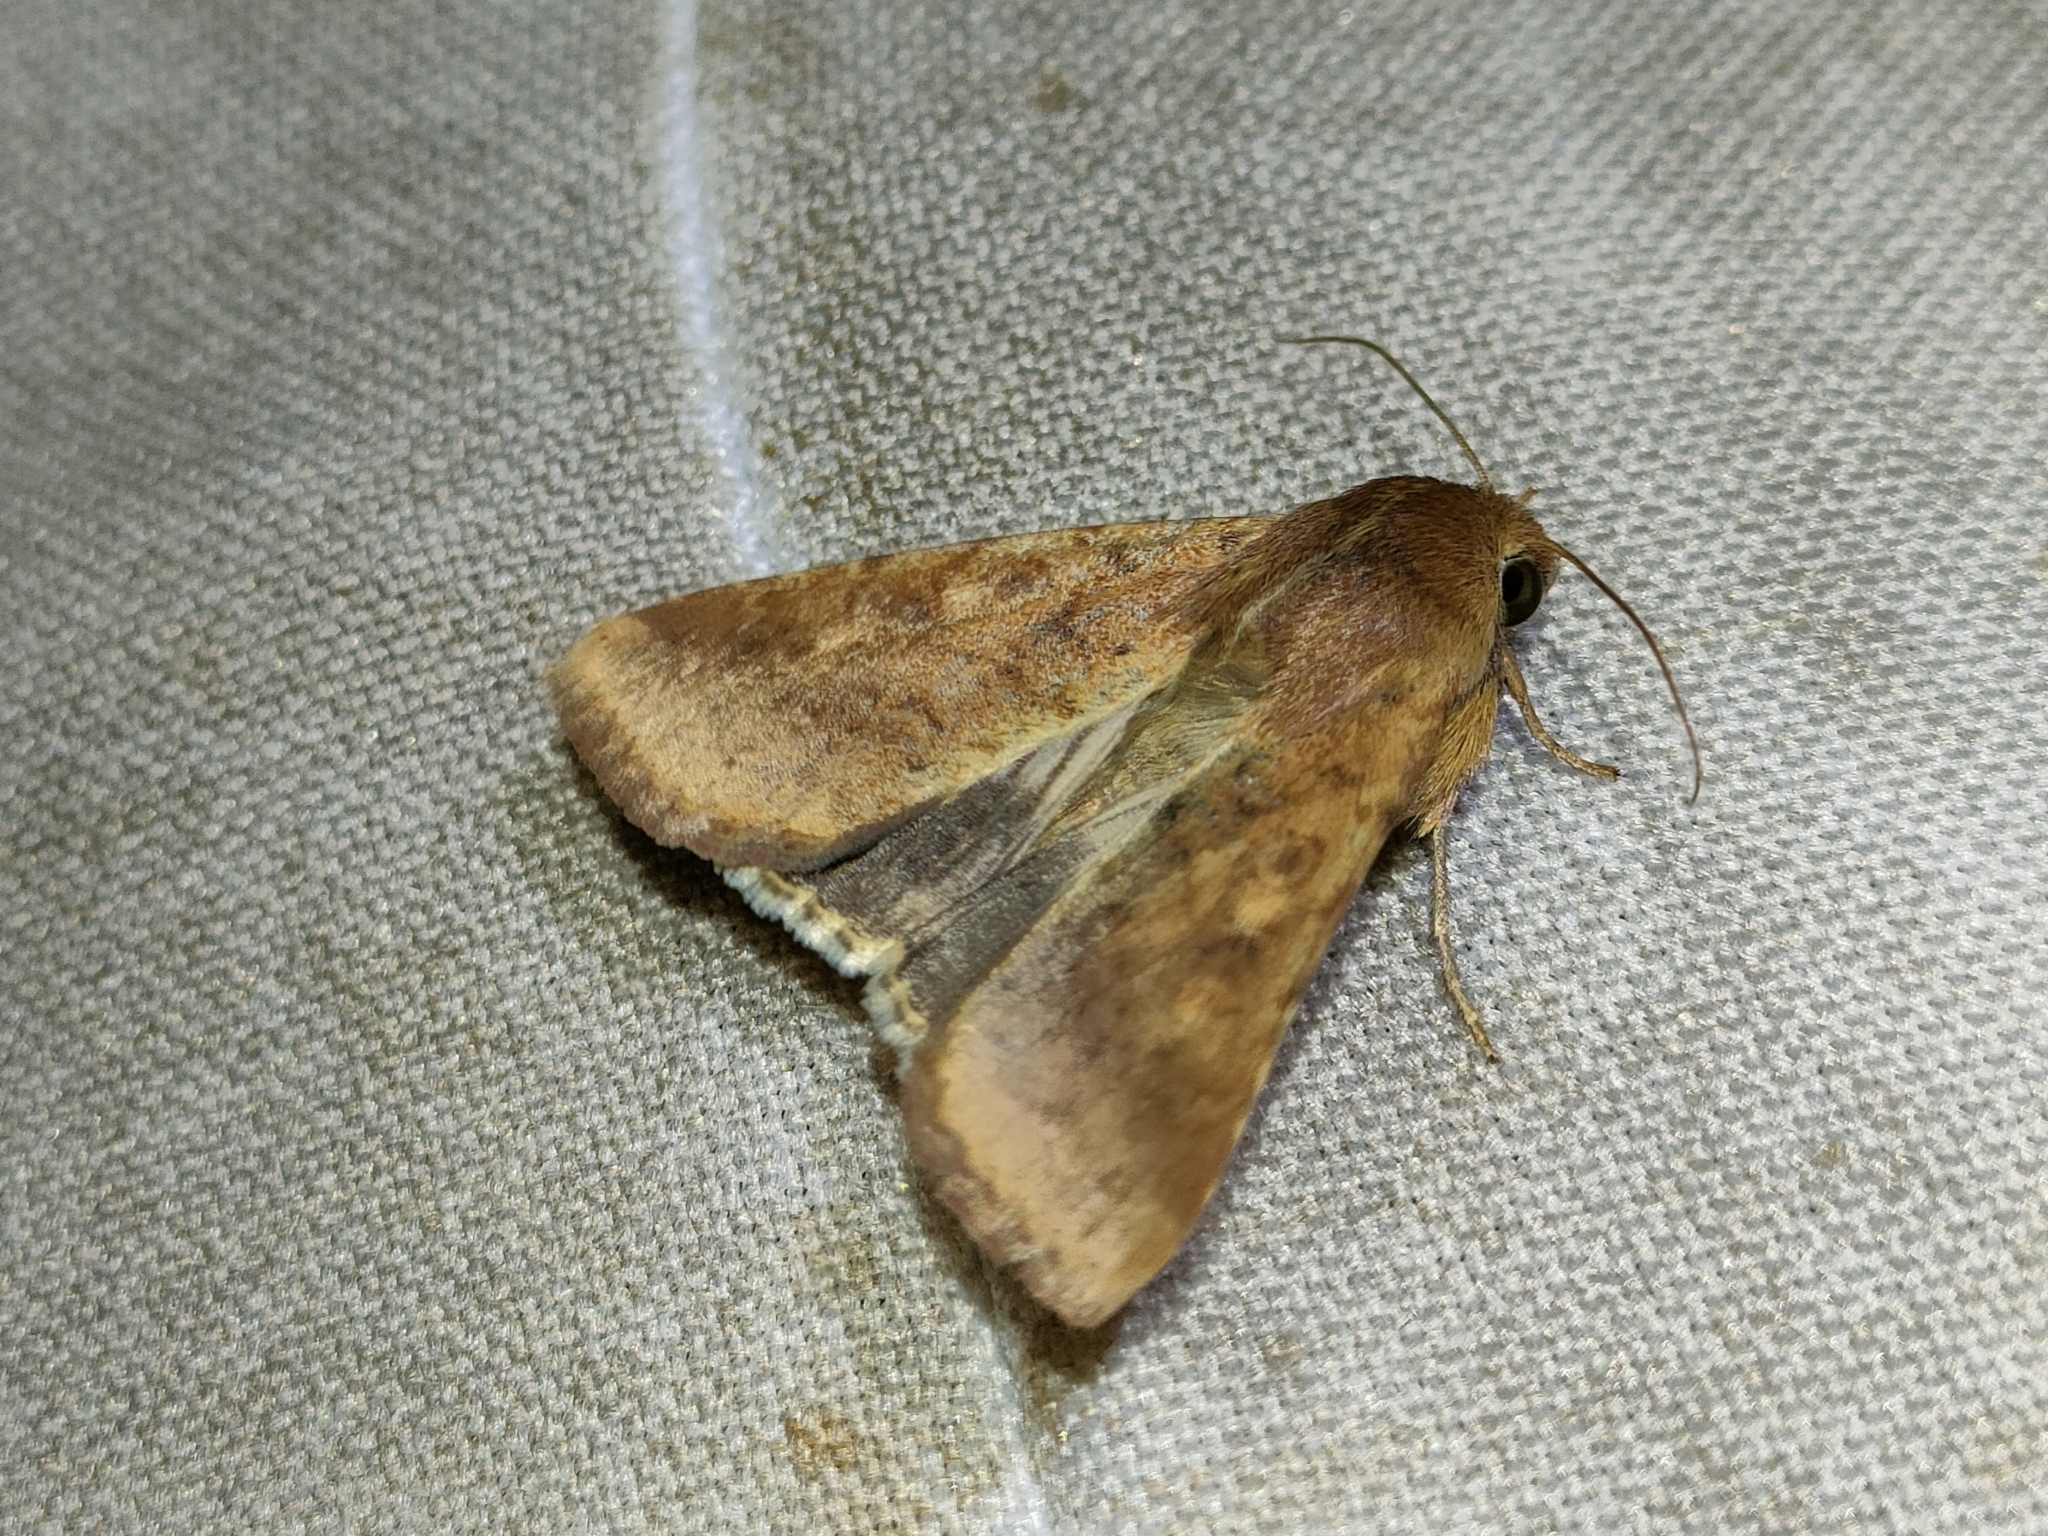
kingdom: Animalia
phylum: Arthropoda
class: Insecta
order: Lepidoptera
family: Noctuidae
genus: Helicoverpa
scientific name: Helicoverpa armigera
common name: Cotton bollworm
